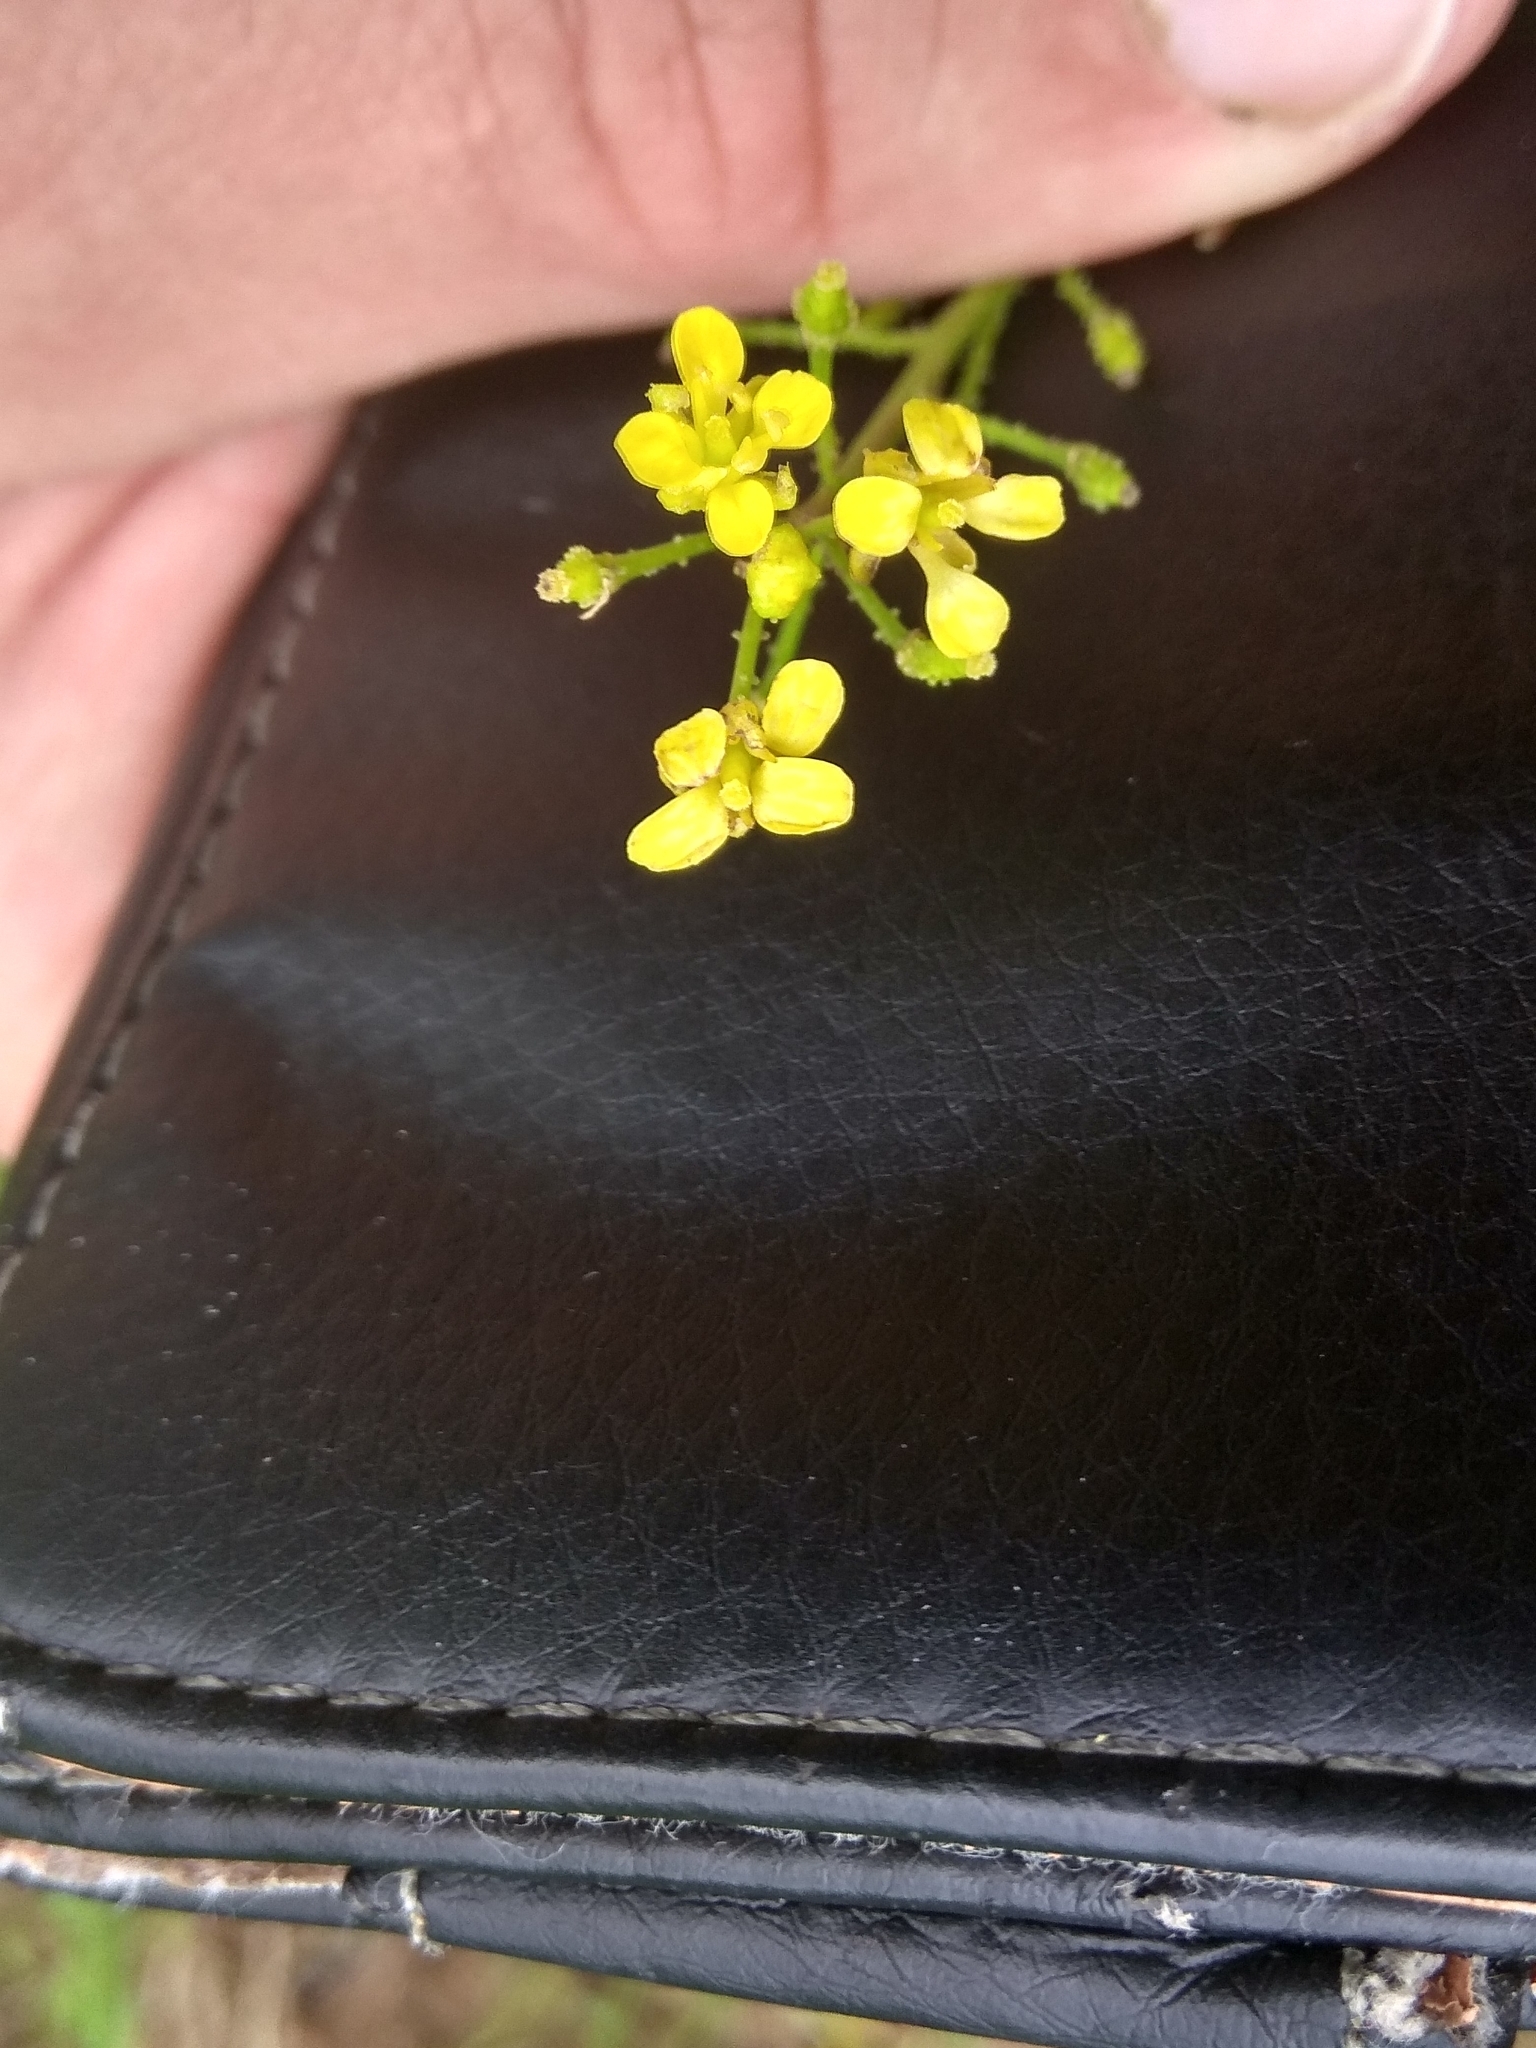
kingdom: Plantae
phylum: Tracheophyta
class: Magnoliopsida
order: Brassicales
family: Brassicaceae
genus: Bunias
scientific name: Bunias orientalis
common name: Warty-cabbage
